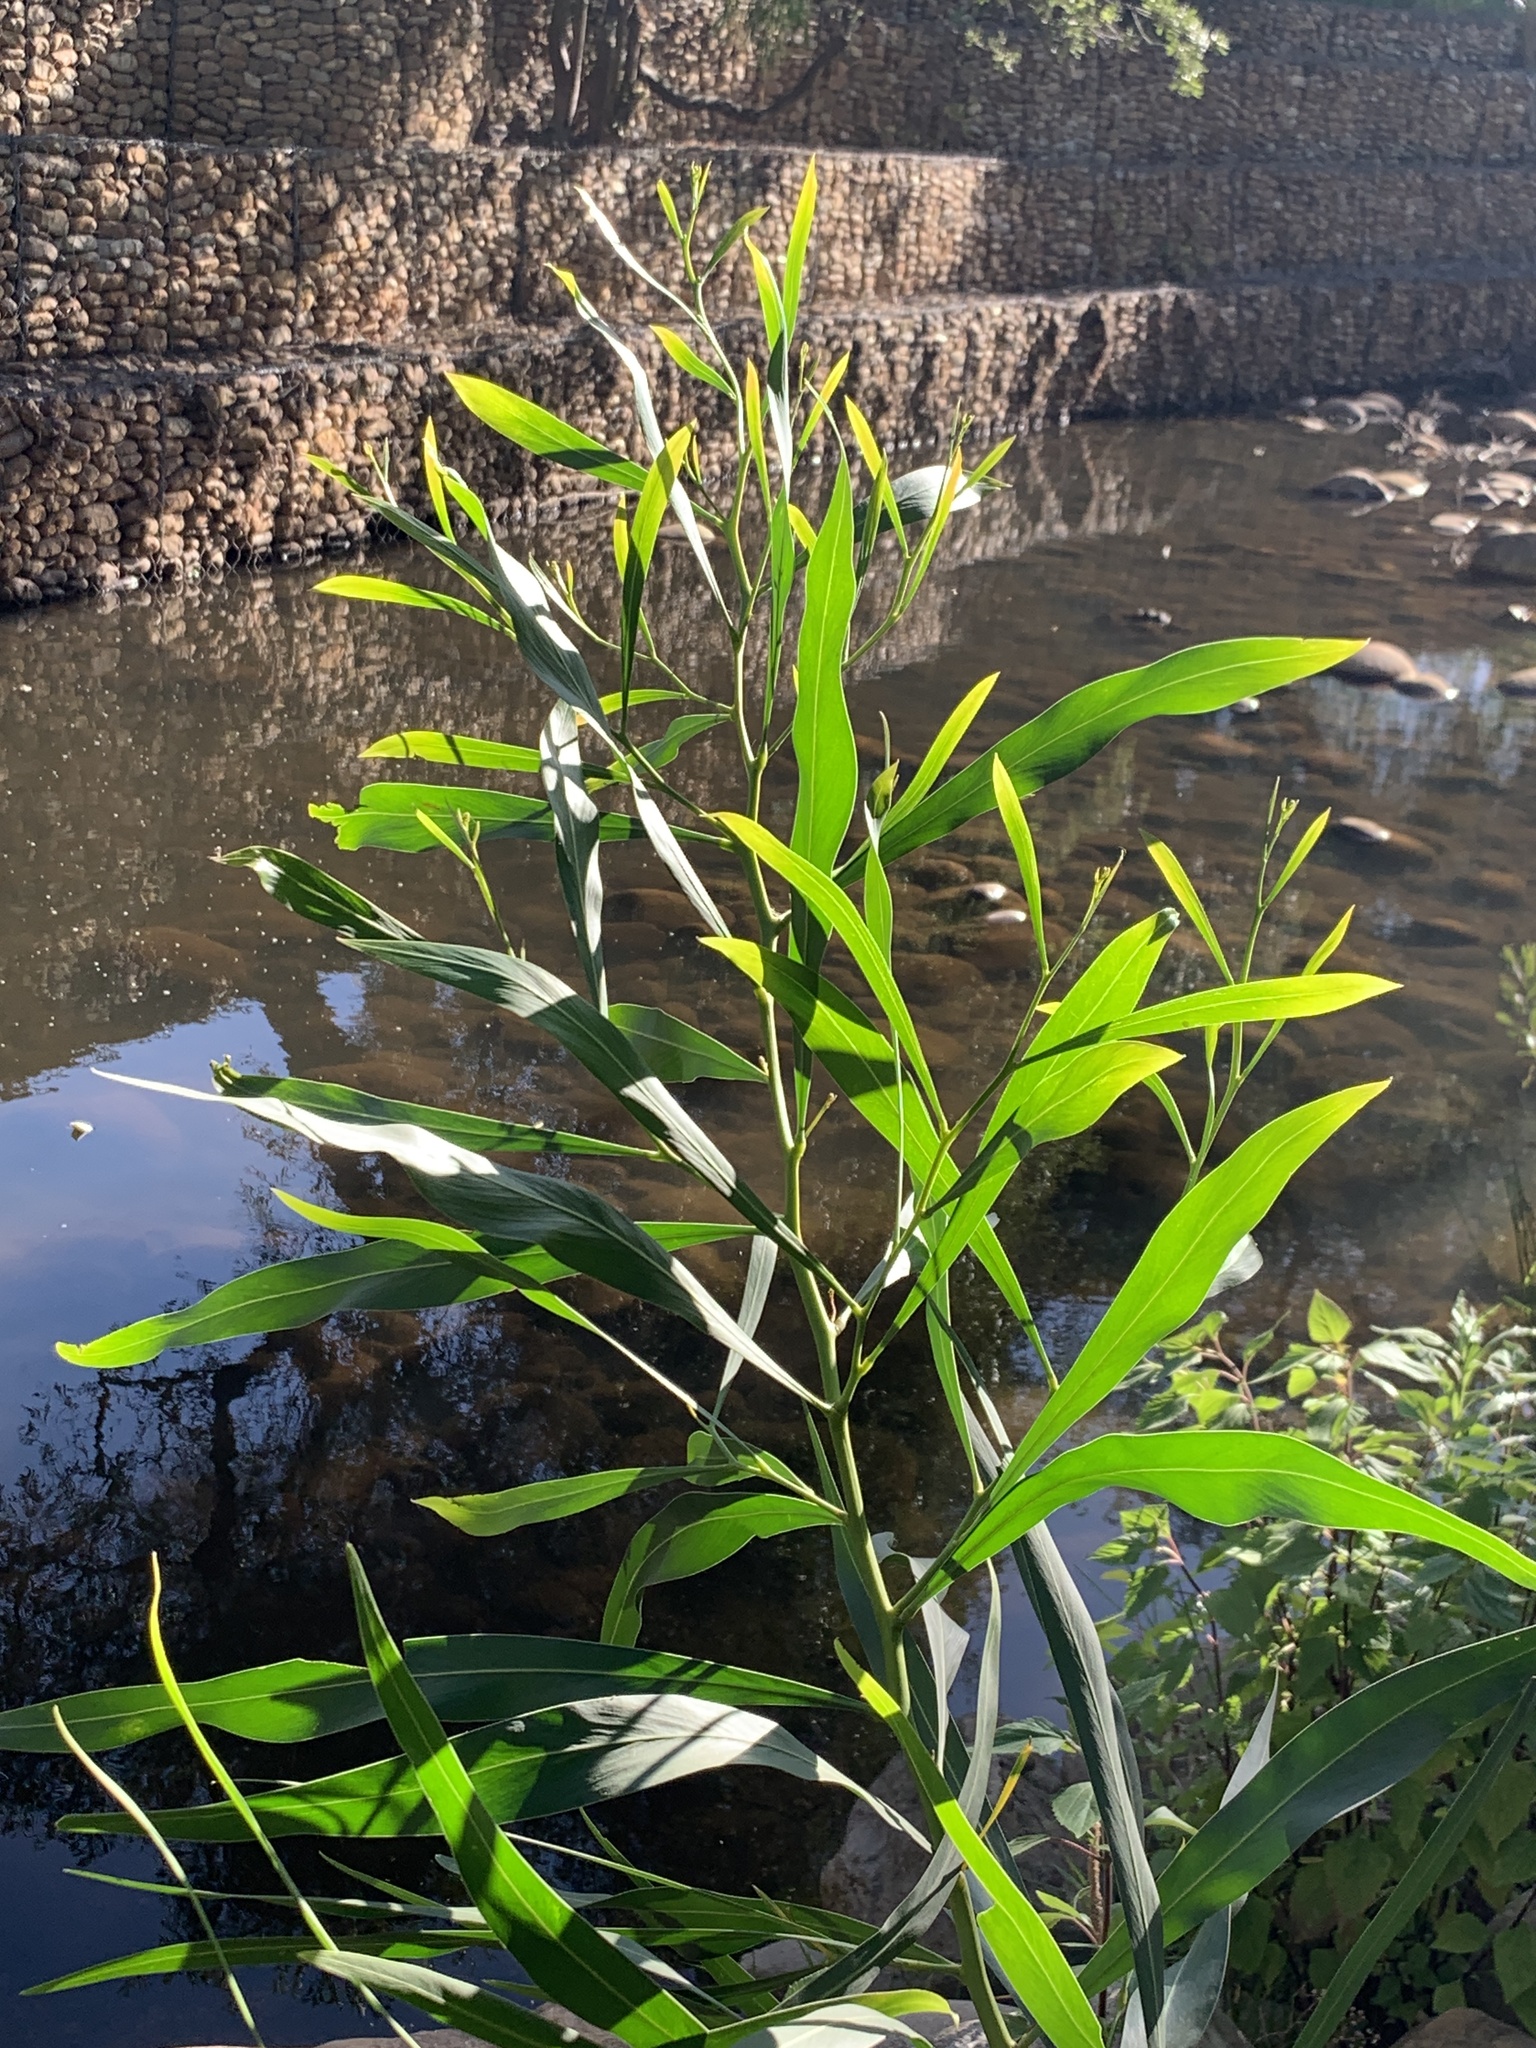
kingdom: Plantae
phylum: Tracheophyta
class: Magnoliopsida
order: Fabales
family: Fabaceae
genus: Acacia
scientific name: Acacia saligna
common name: Orange wattle
